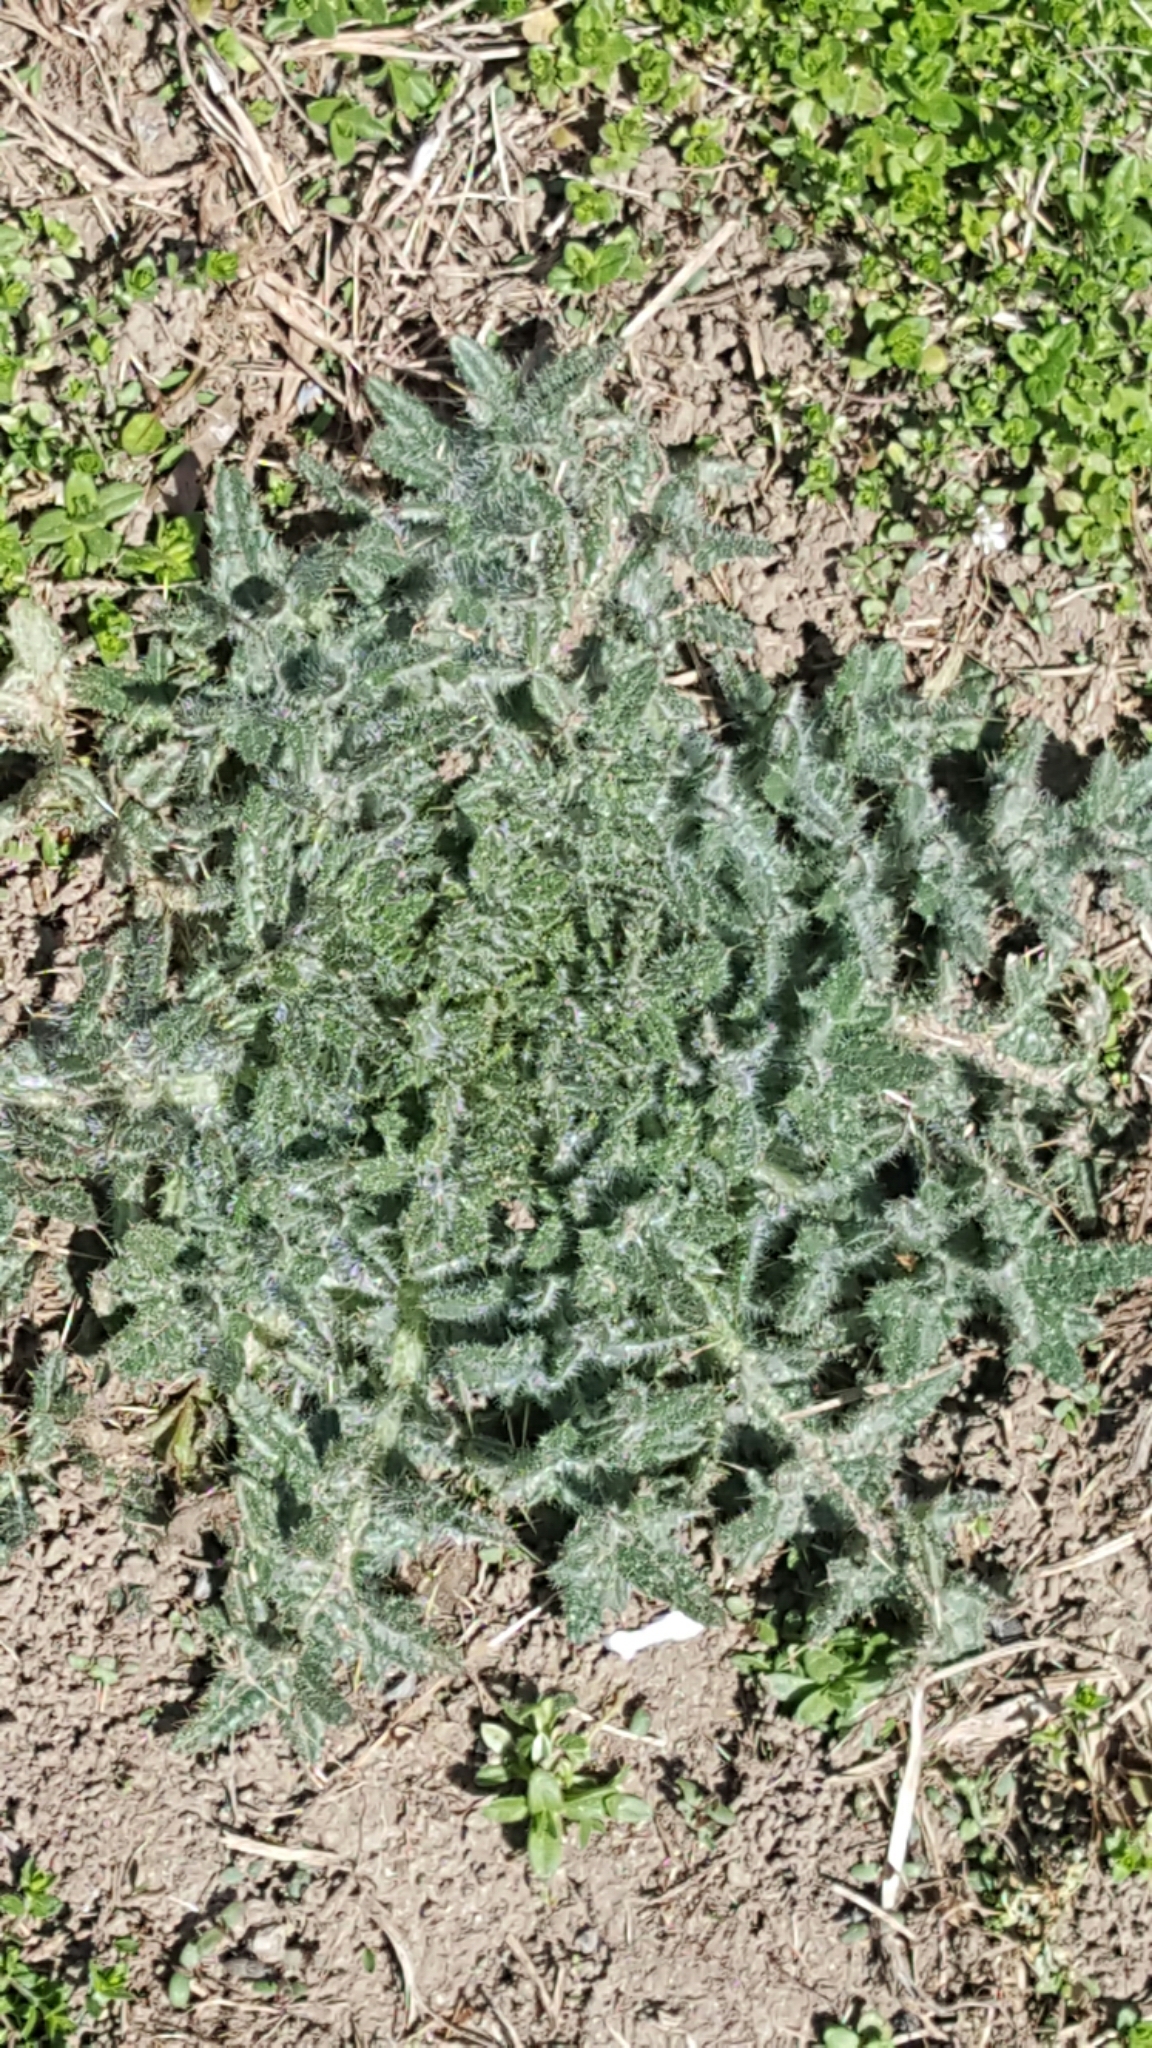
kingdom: Plantae
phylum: Tracheophyta
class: Magnoliopsida
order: Asterales
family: Asteraceae
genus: Cirsium
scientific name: Cirsium vulgare
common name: Bull thistle
